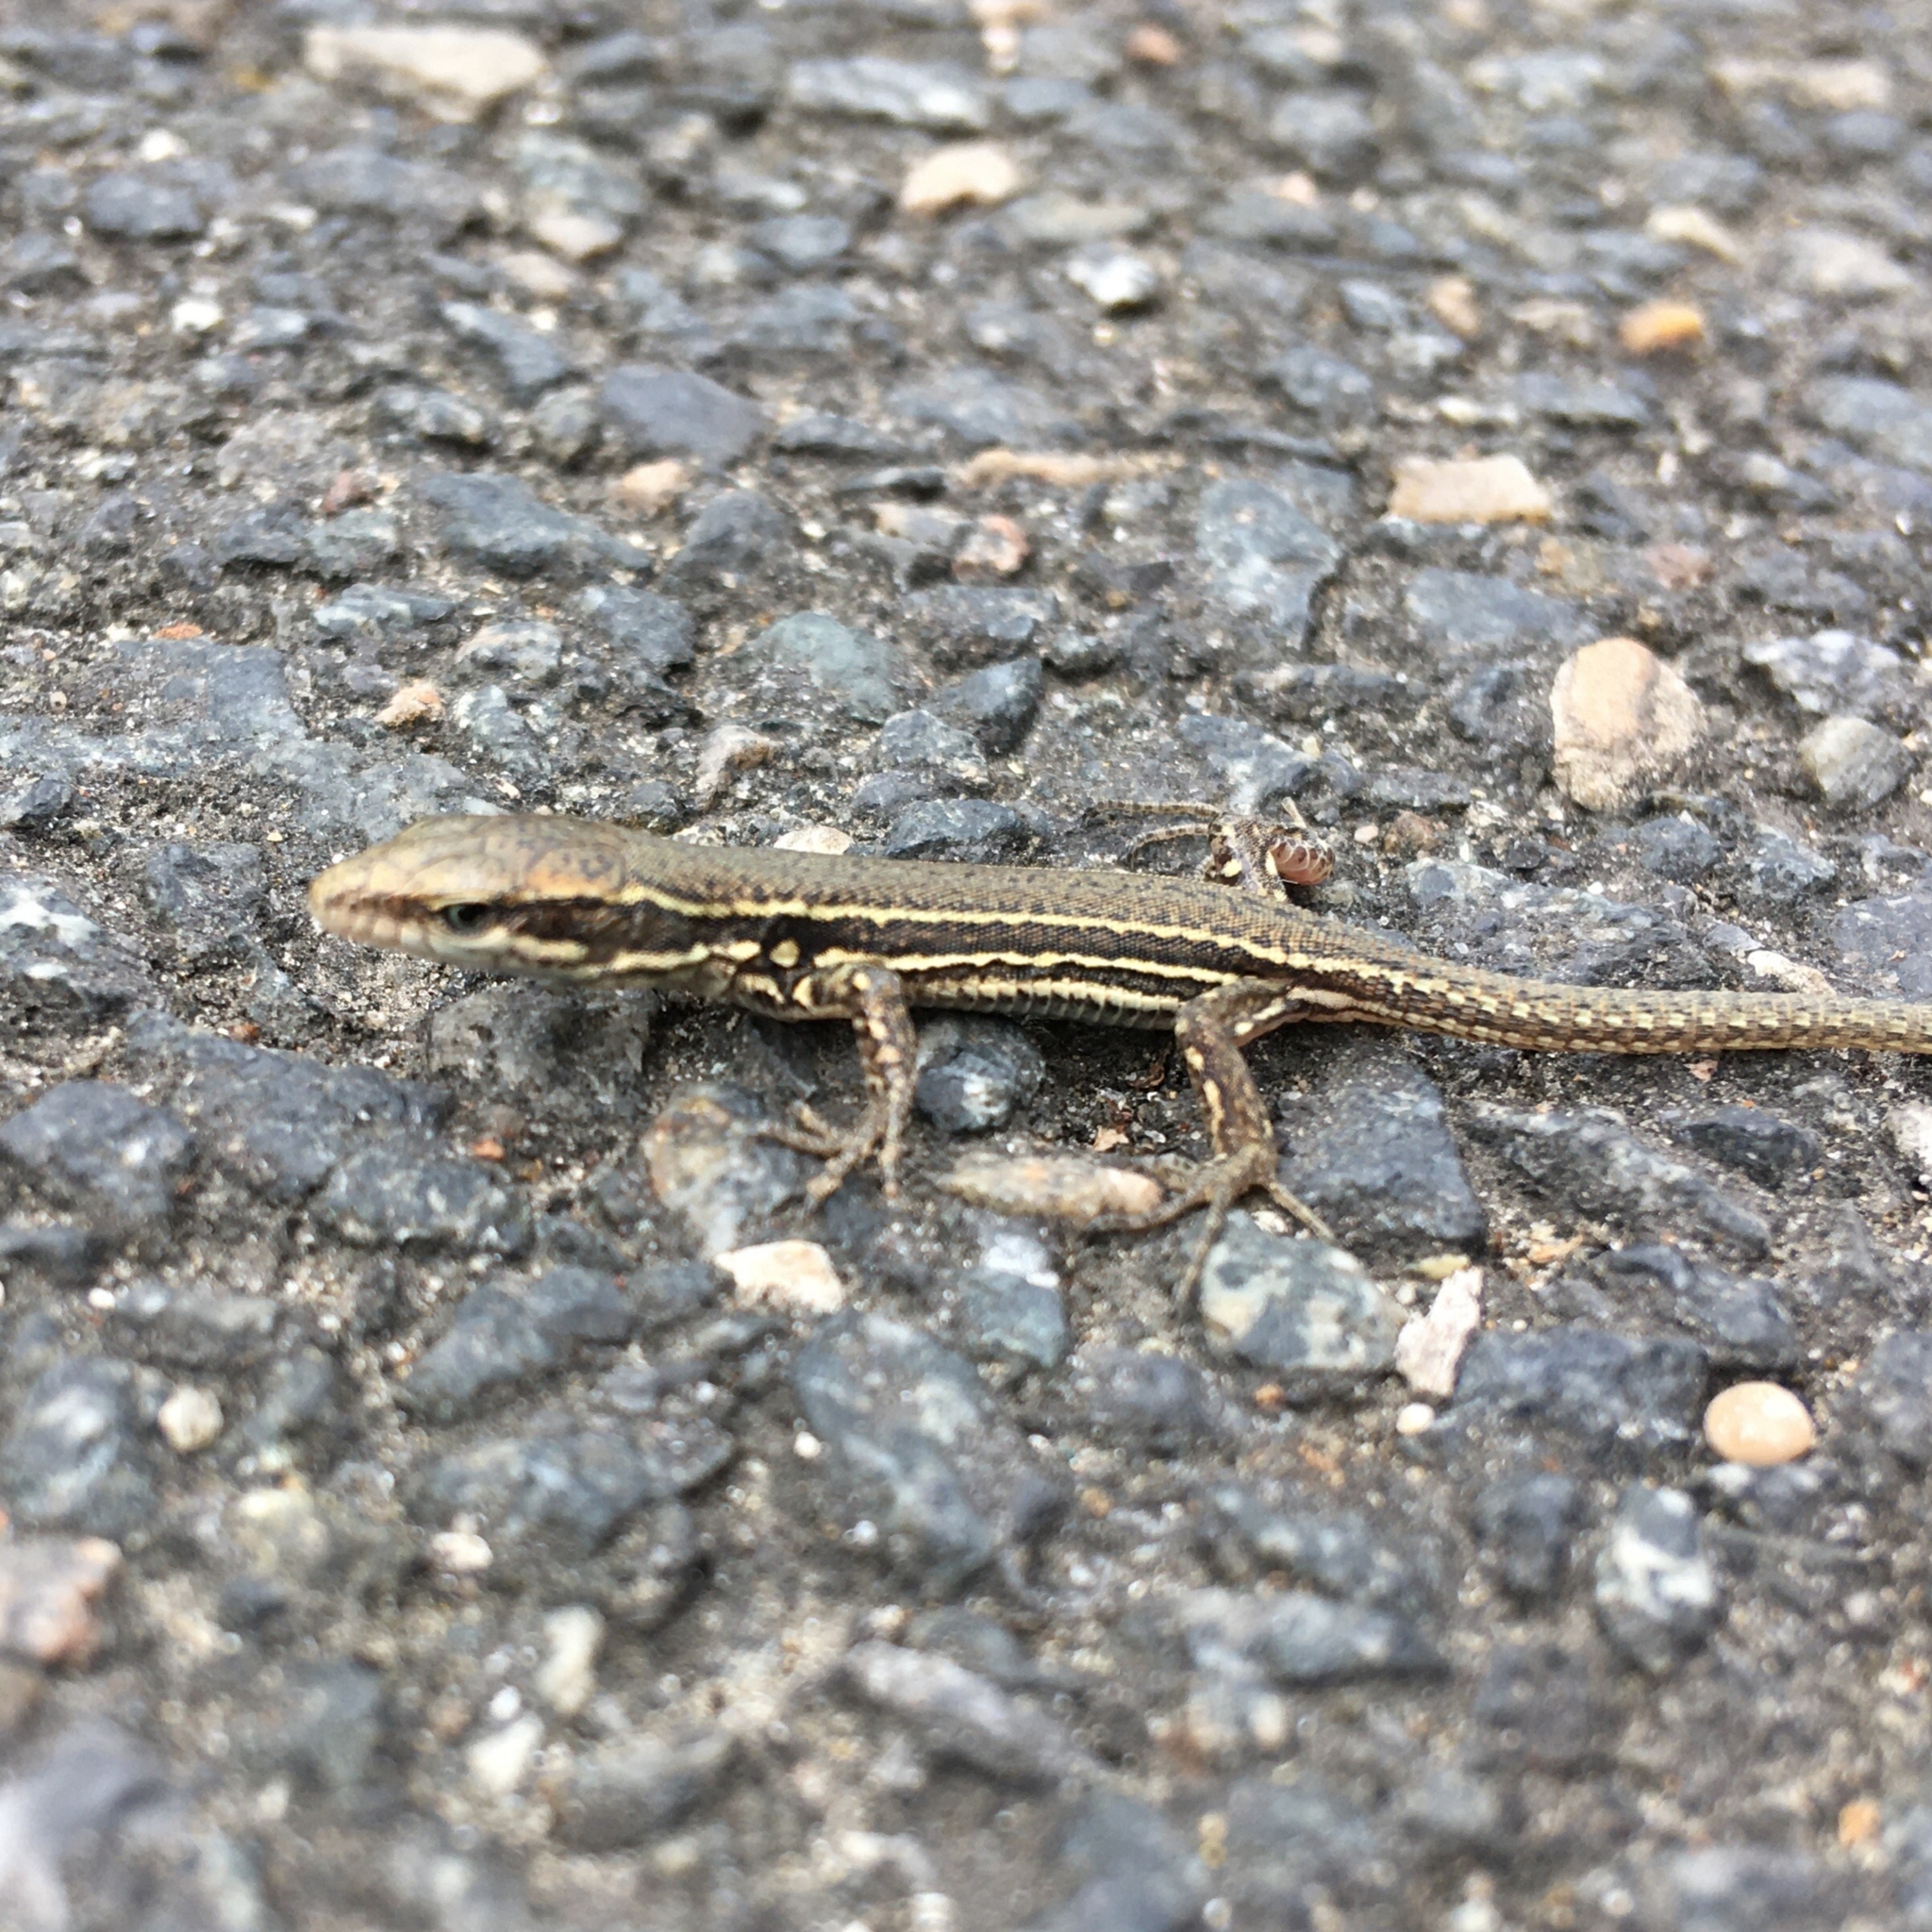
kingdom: Animalia
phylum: Chordata
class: Squamata
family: Lacertidae
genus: Podarcis
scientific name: Podarcis muralis
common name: Common wall lizard
